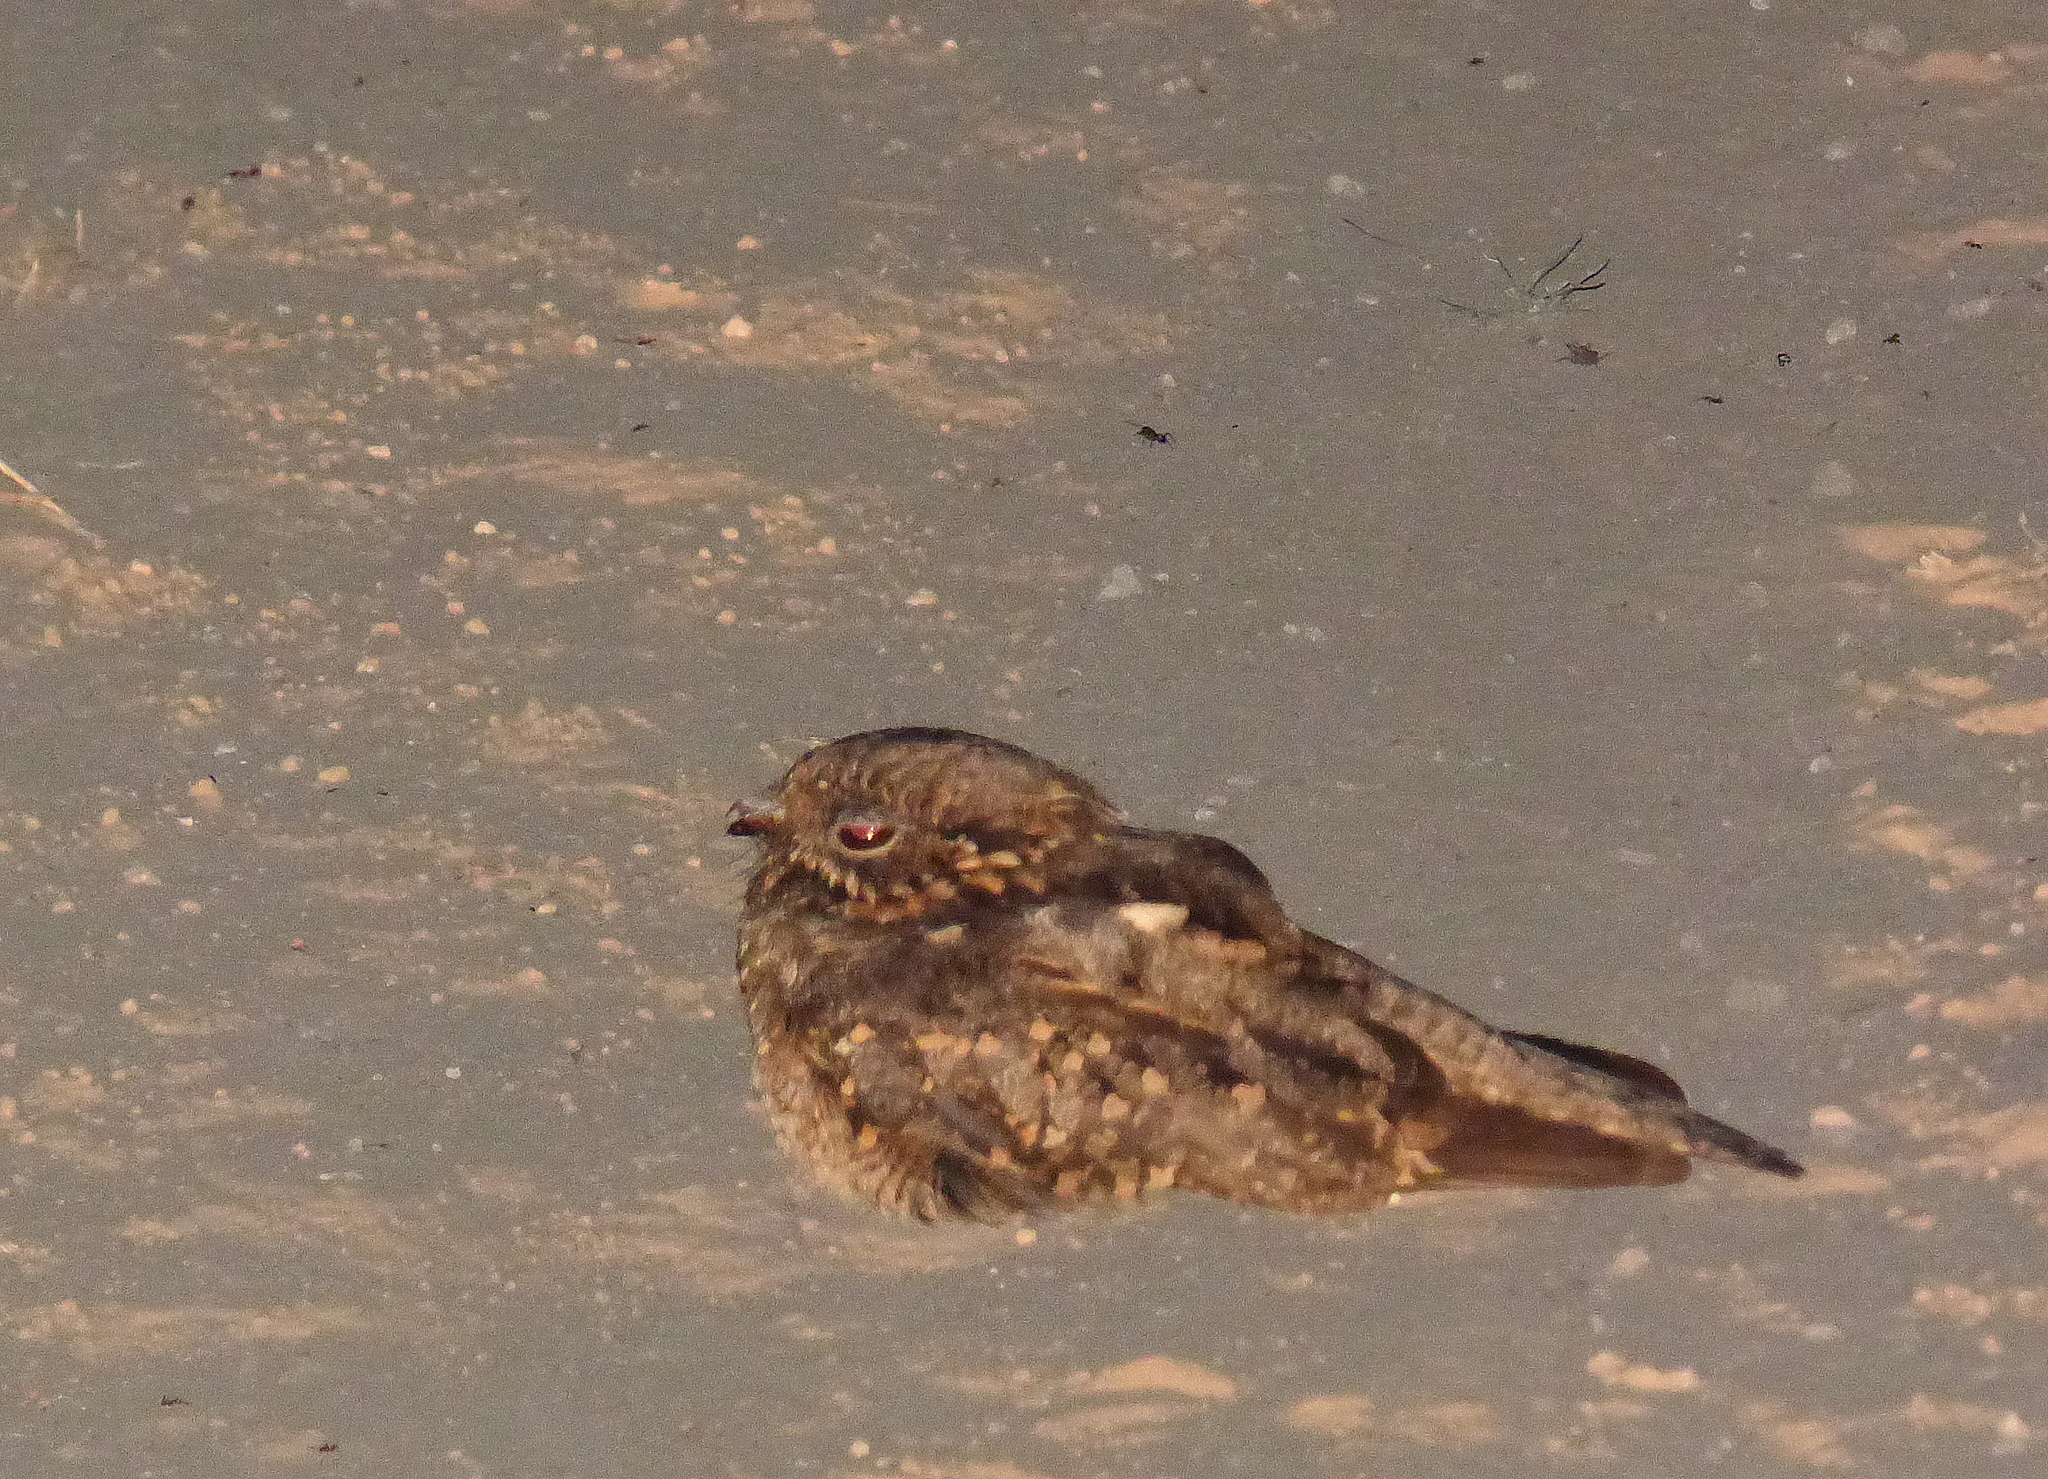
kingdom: Animalia
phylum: Chordata
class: Aves
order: Caprimulgiformes
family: Caprimulgidae
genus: Setopagis
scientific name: Setopagis parvula
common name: Little nightjar
